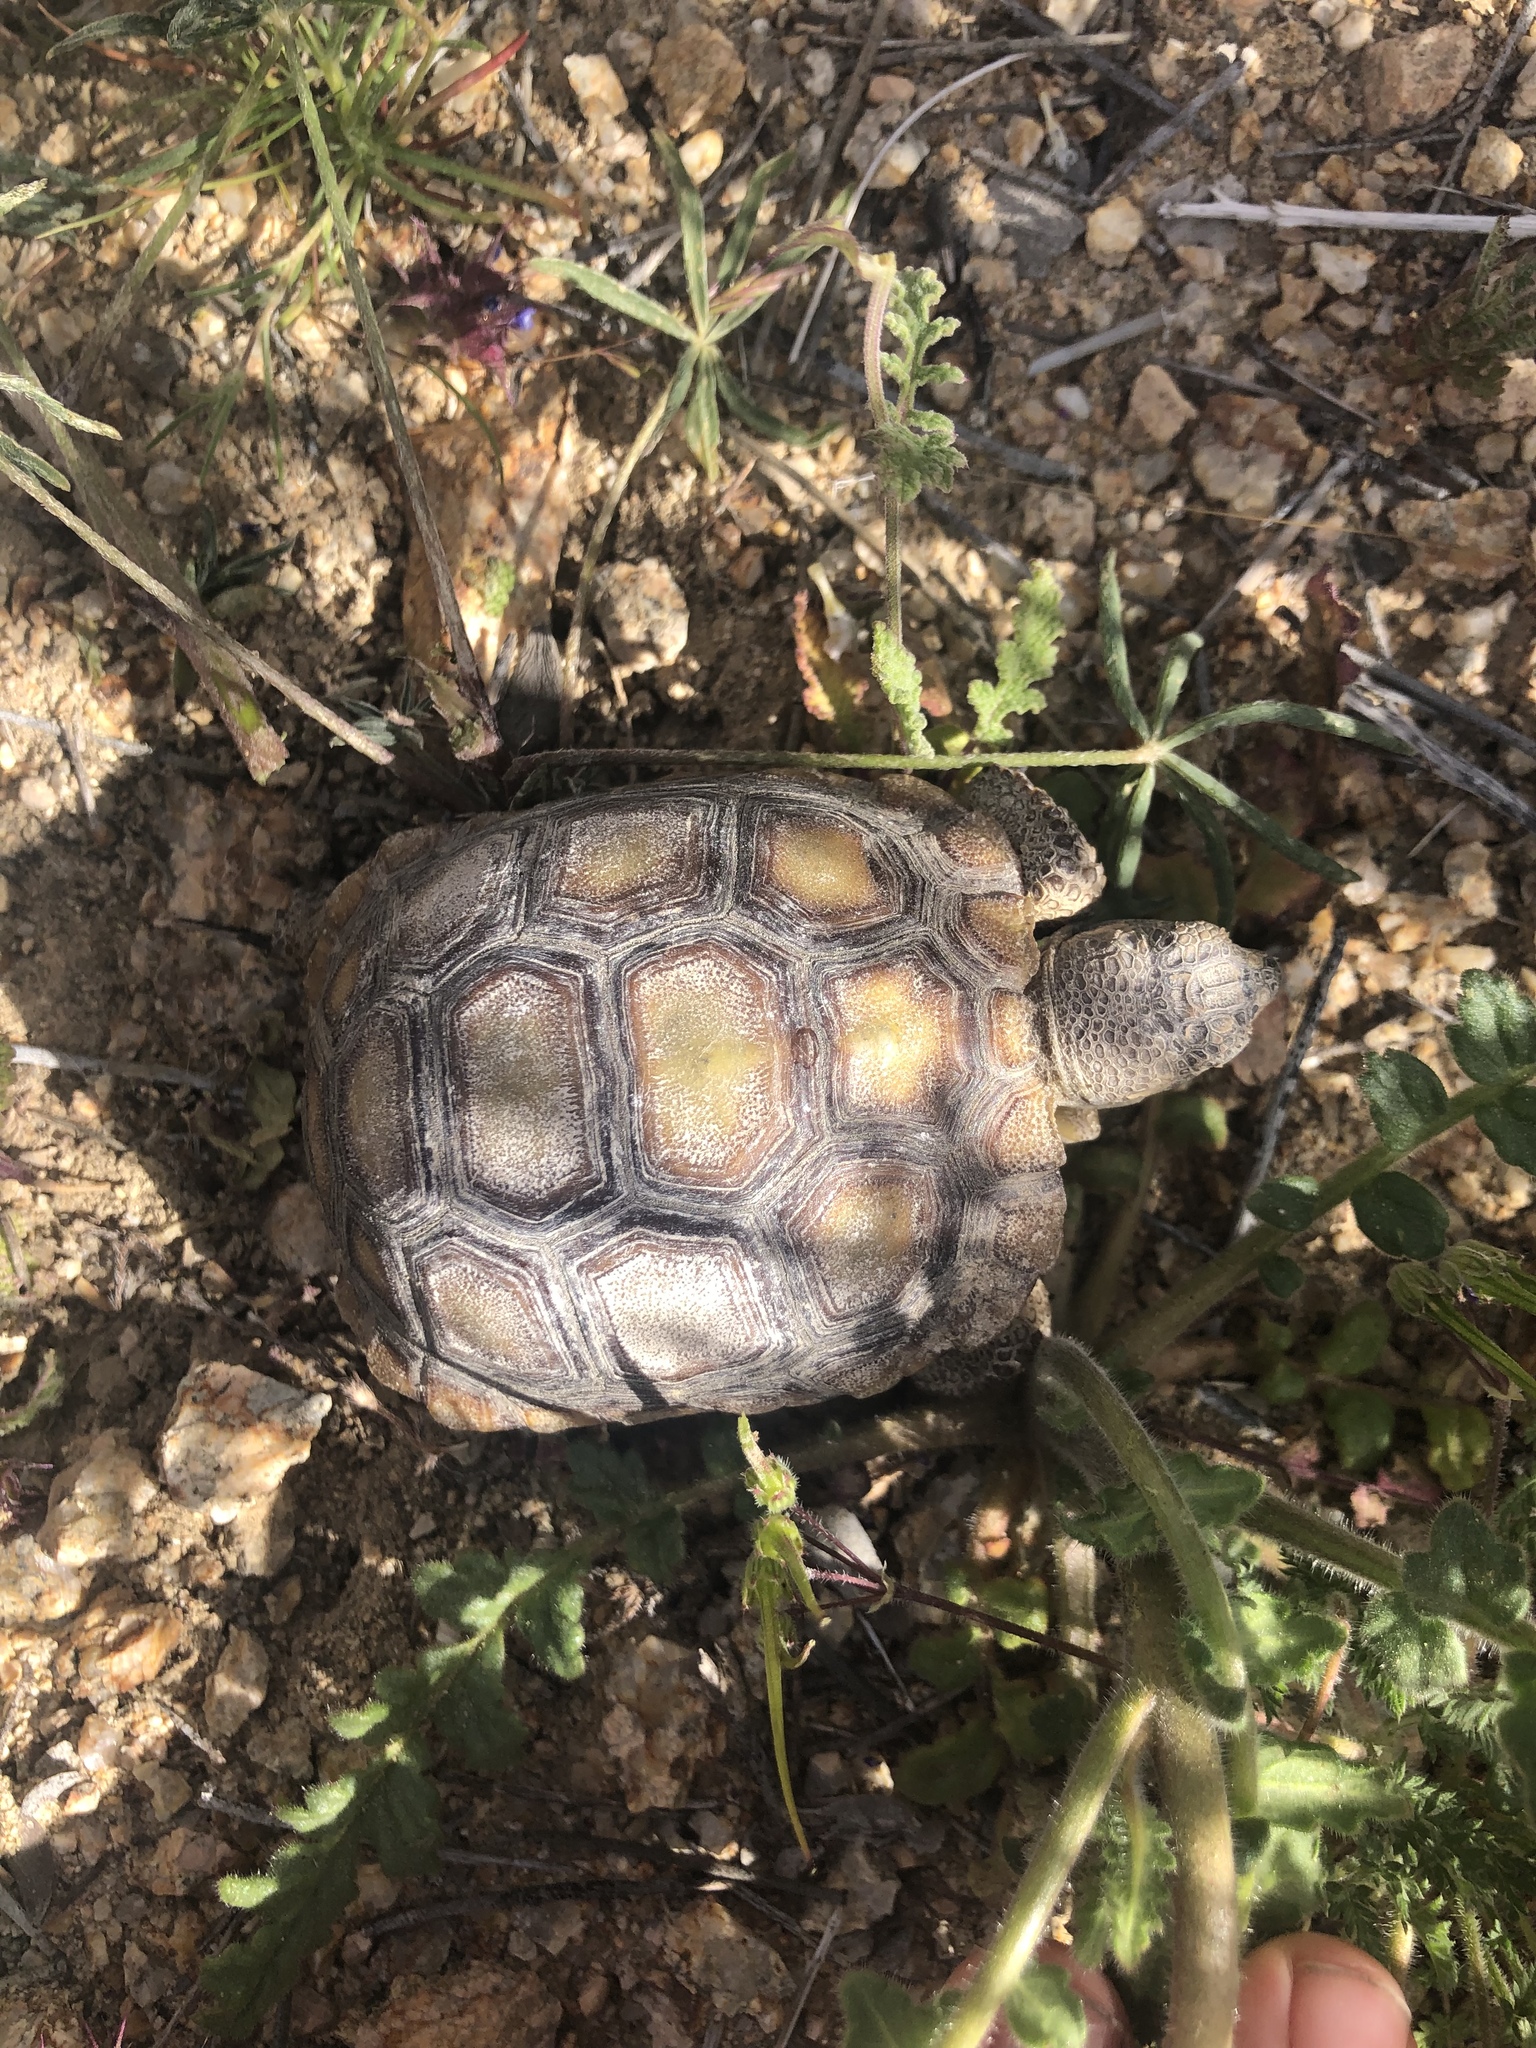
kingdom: Animalia
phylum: Chordata
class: Testudines
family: Testudinidae
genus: Gopherus
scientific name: Gopherus agassizii
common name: Mojave desert tortoise
